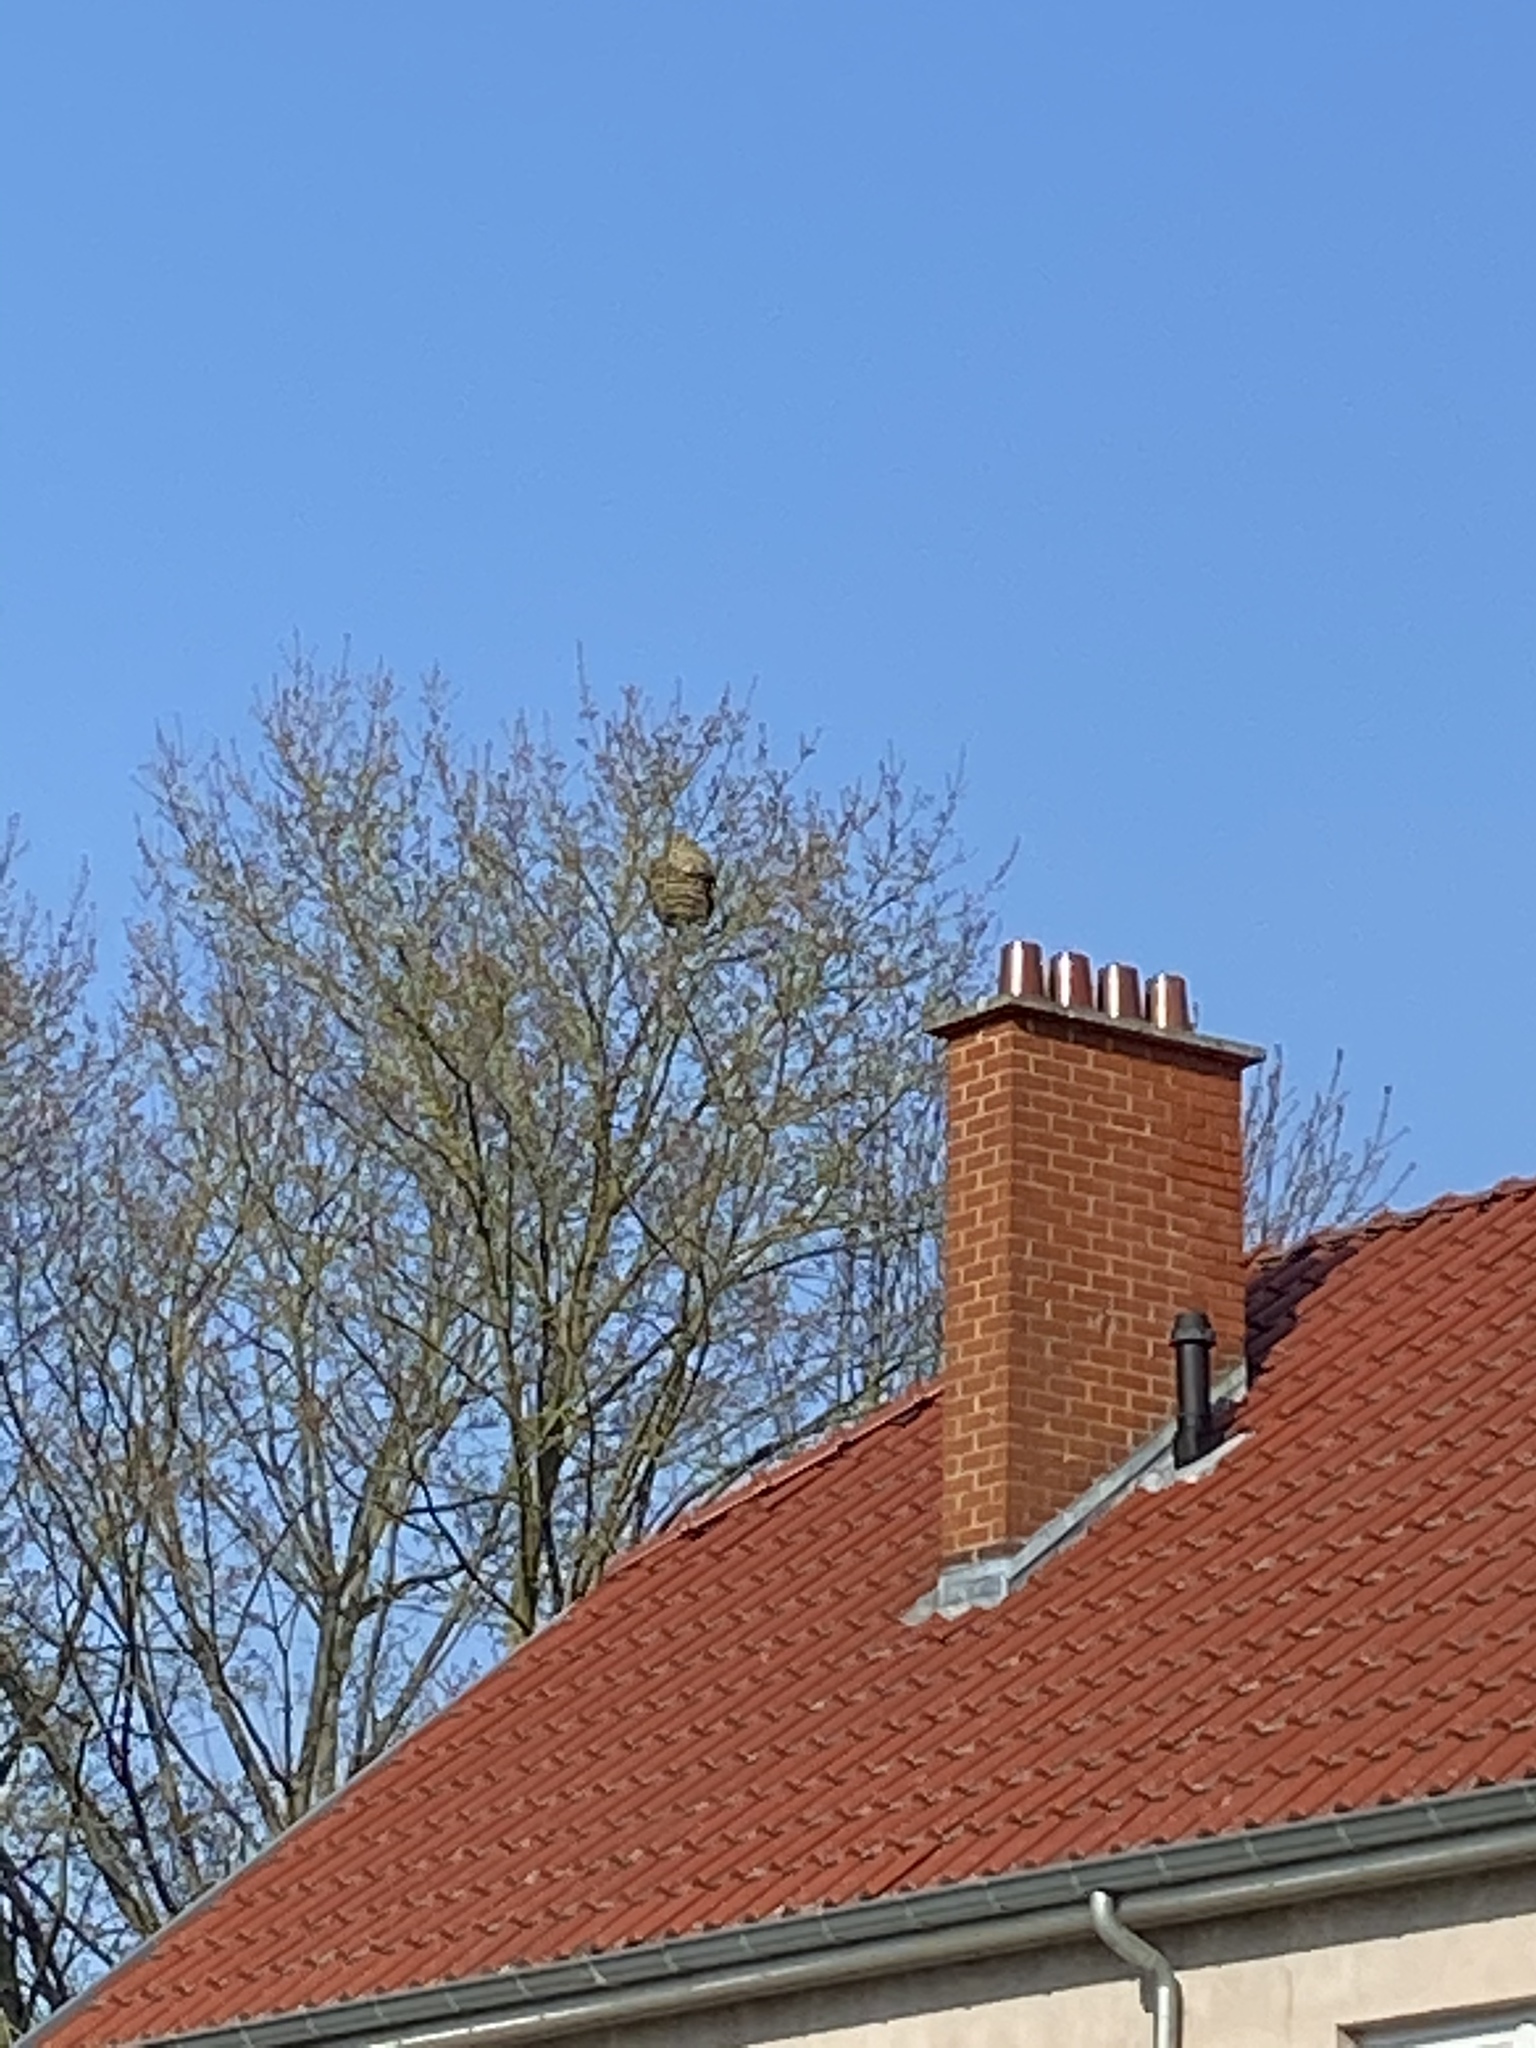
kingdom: Animalia
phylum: Arthropoda
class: Insecta
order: Hymenoptera
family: Vespidae
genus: Vespa
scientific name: Vespa velutina
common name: Asian hornet
